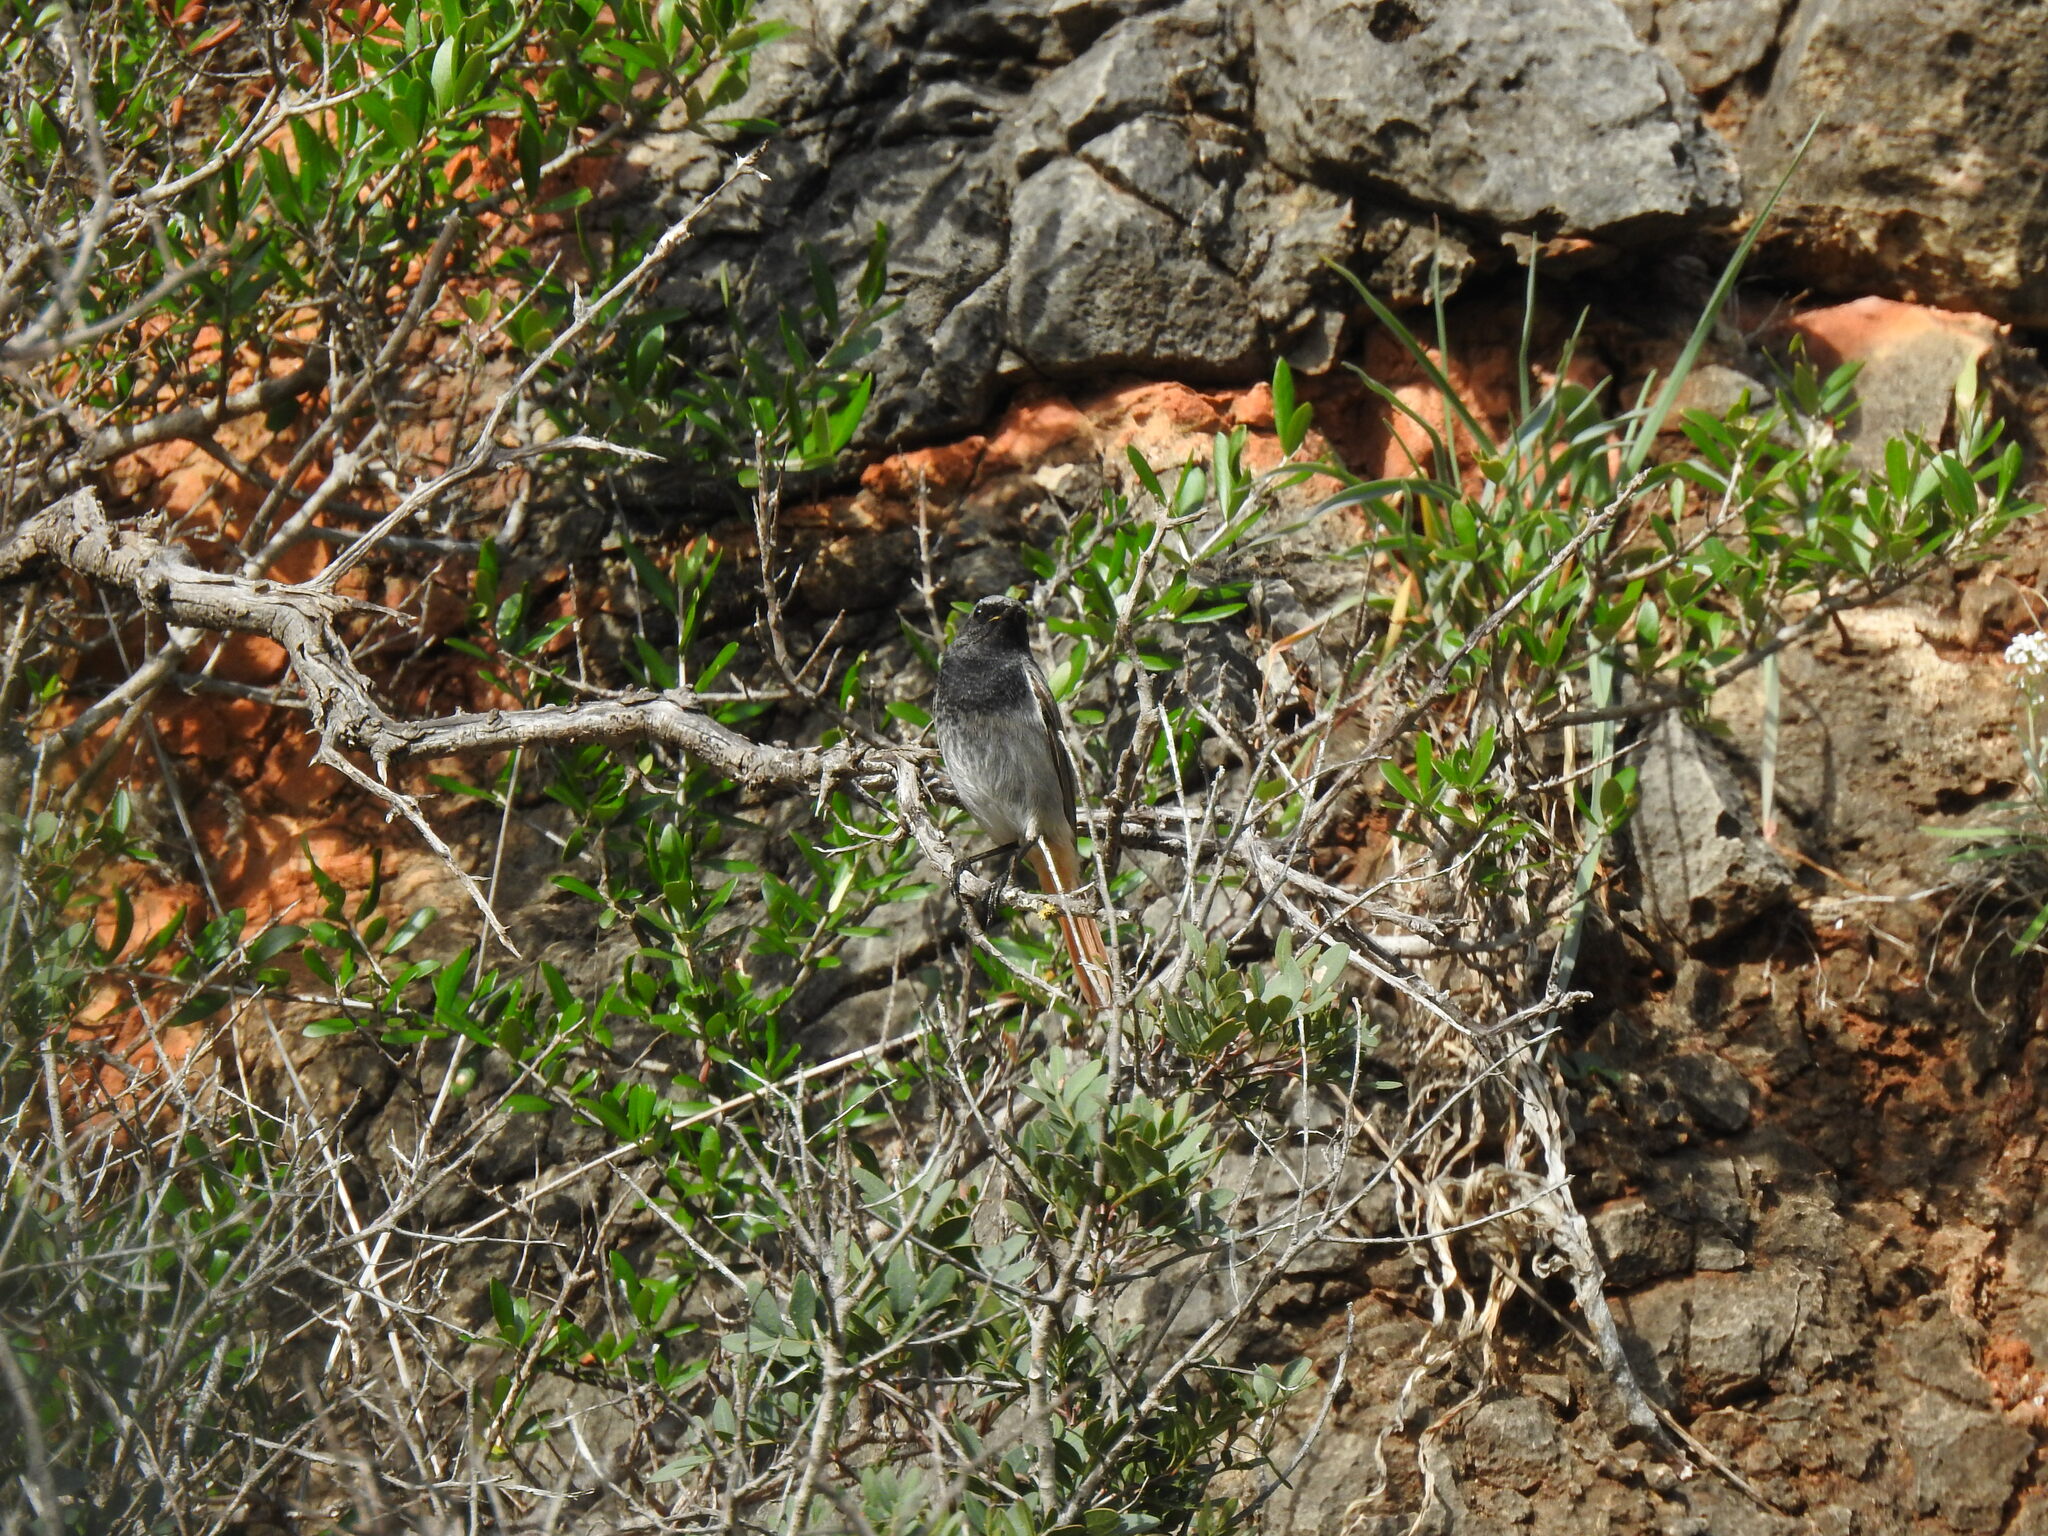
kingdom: Animalia
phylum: Chordata
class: Aves
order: Passeriformes
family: Muscicapidae
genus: Phoenicurus
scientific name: Phoenicurus ochruros
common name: Black redstart
